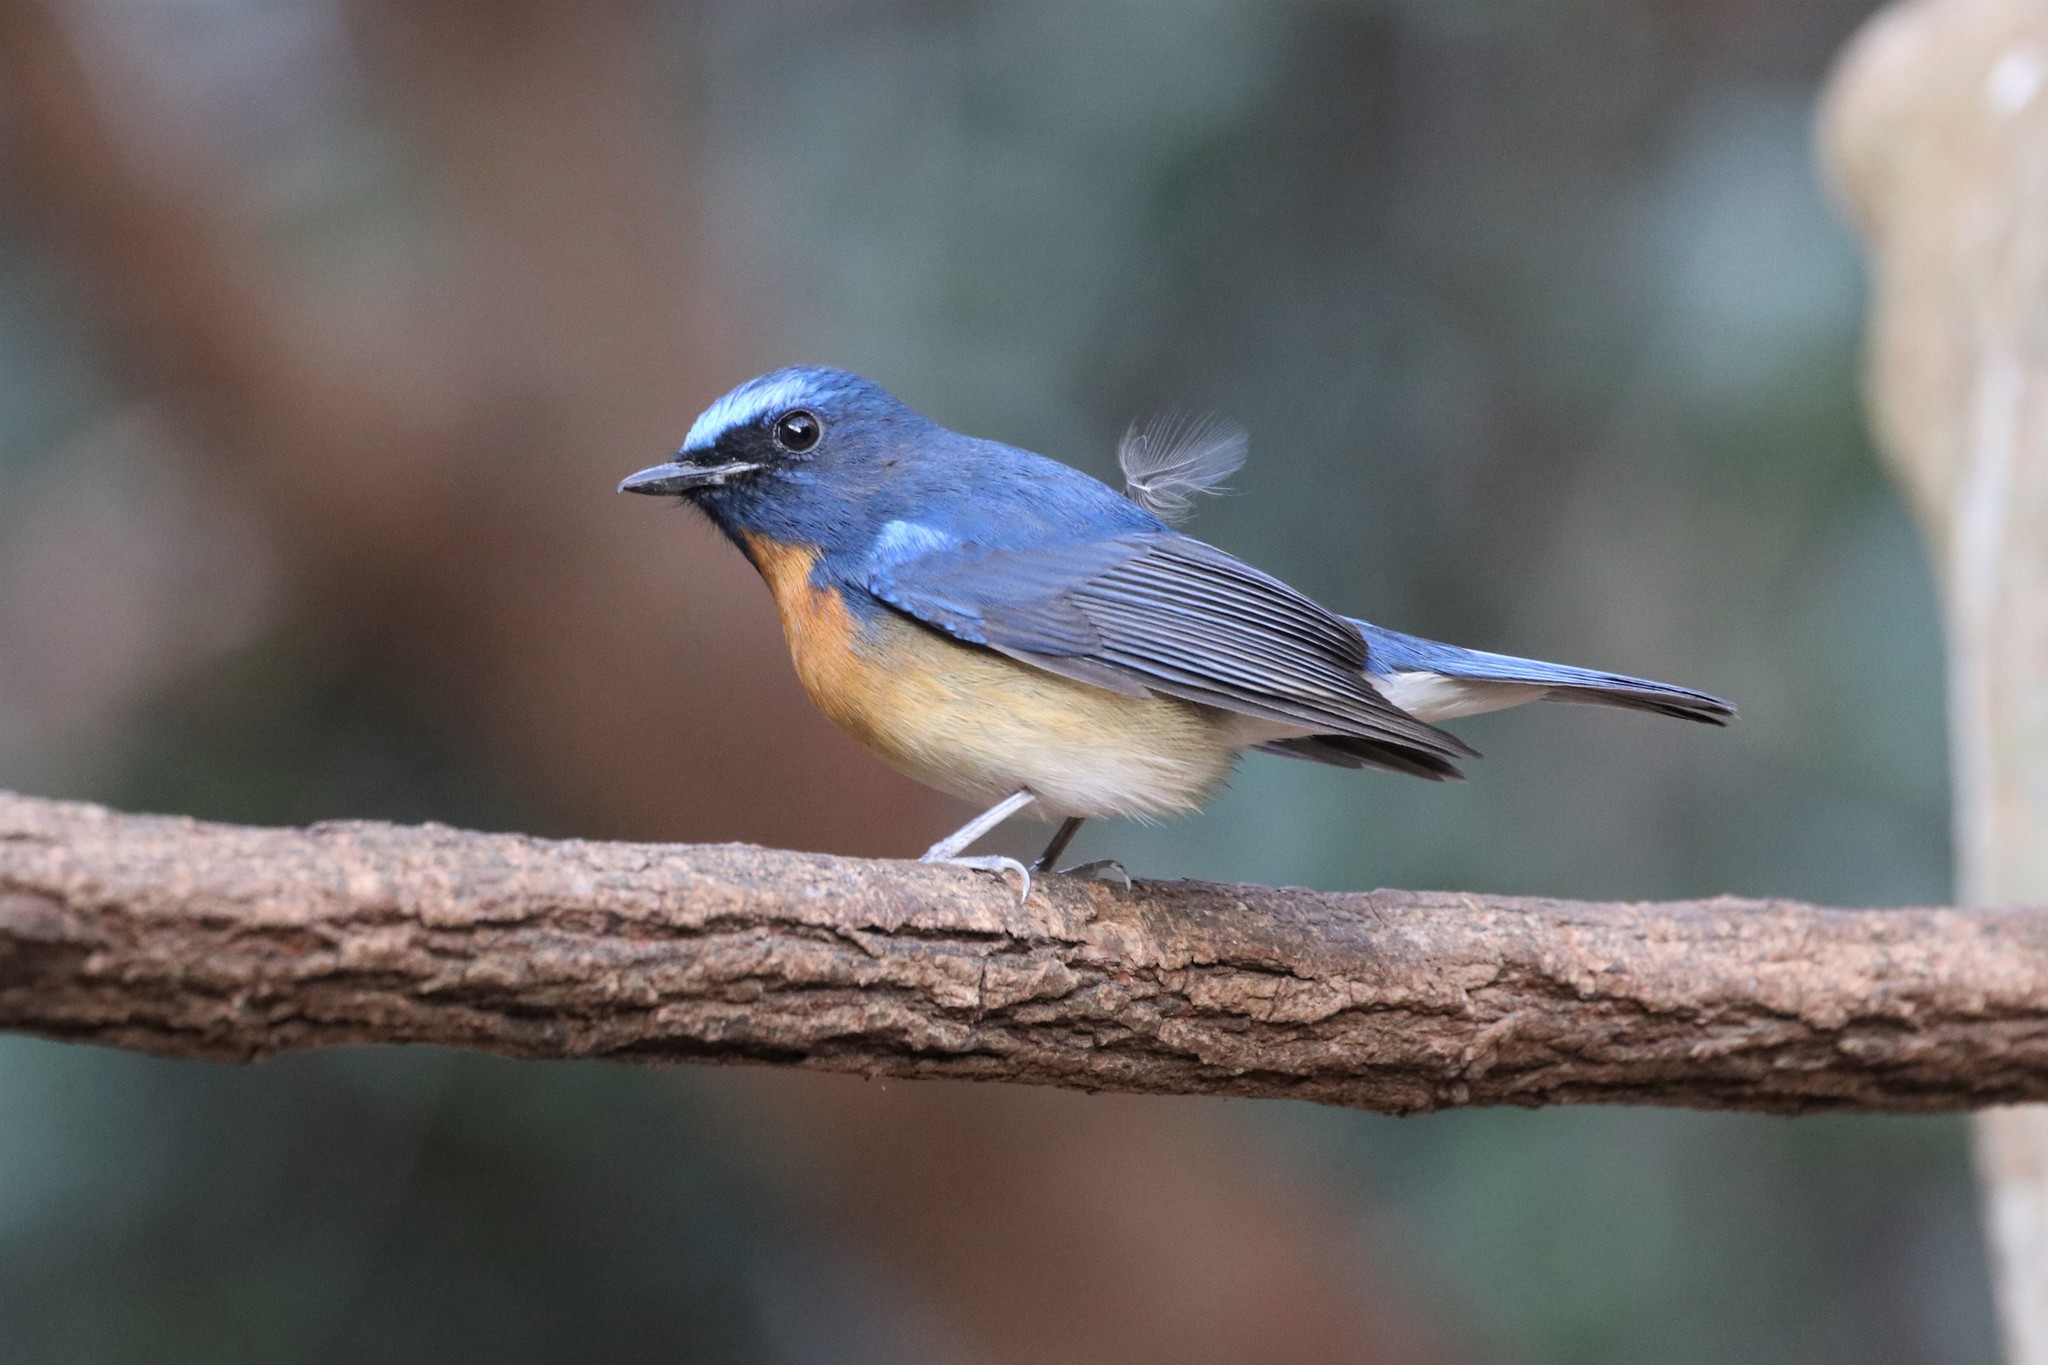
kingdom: Animalia
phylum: Chordata
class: Aves
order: Passeriformes
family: Muscicapidae
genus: Cyornis
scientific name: Cyornis glaucicomans
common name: Chinese blue flycatcher
